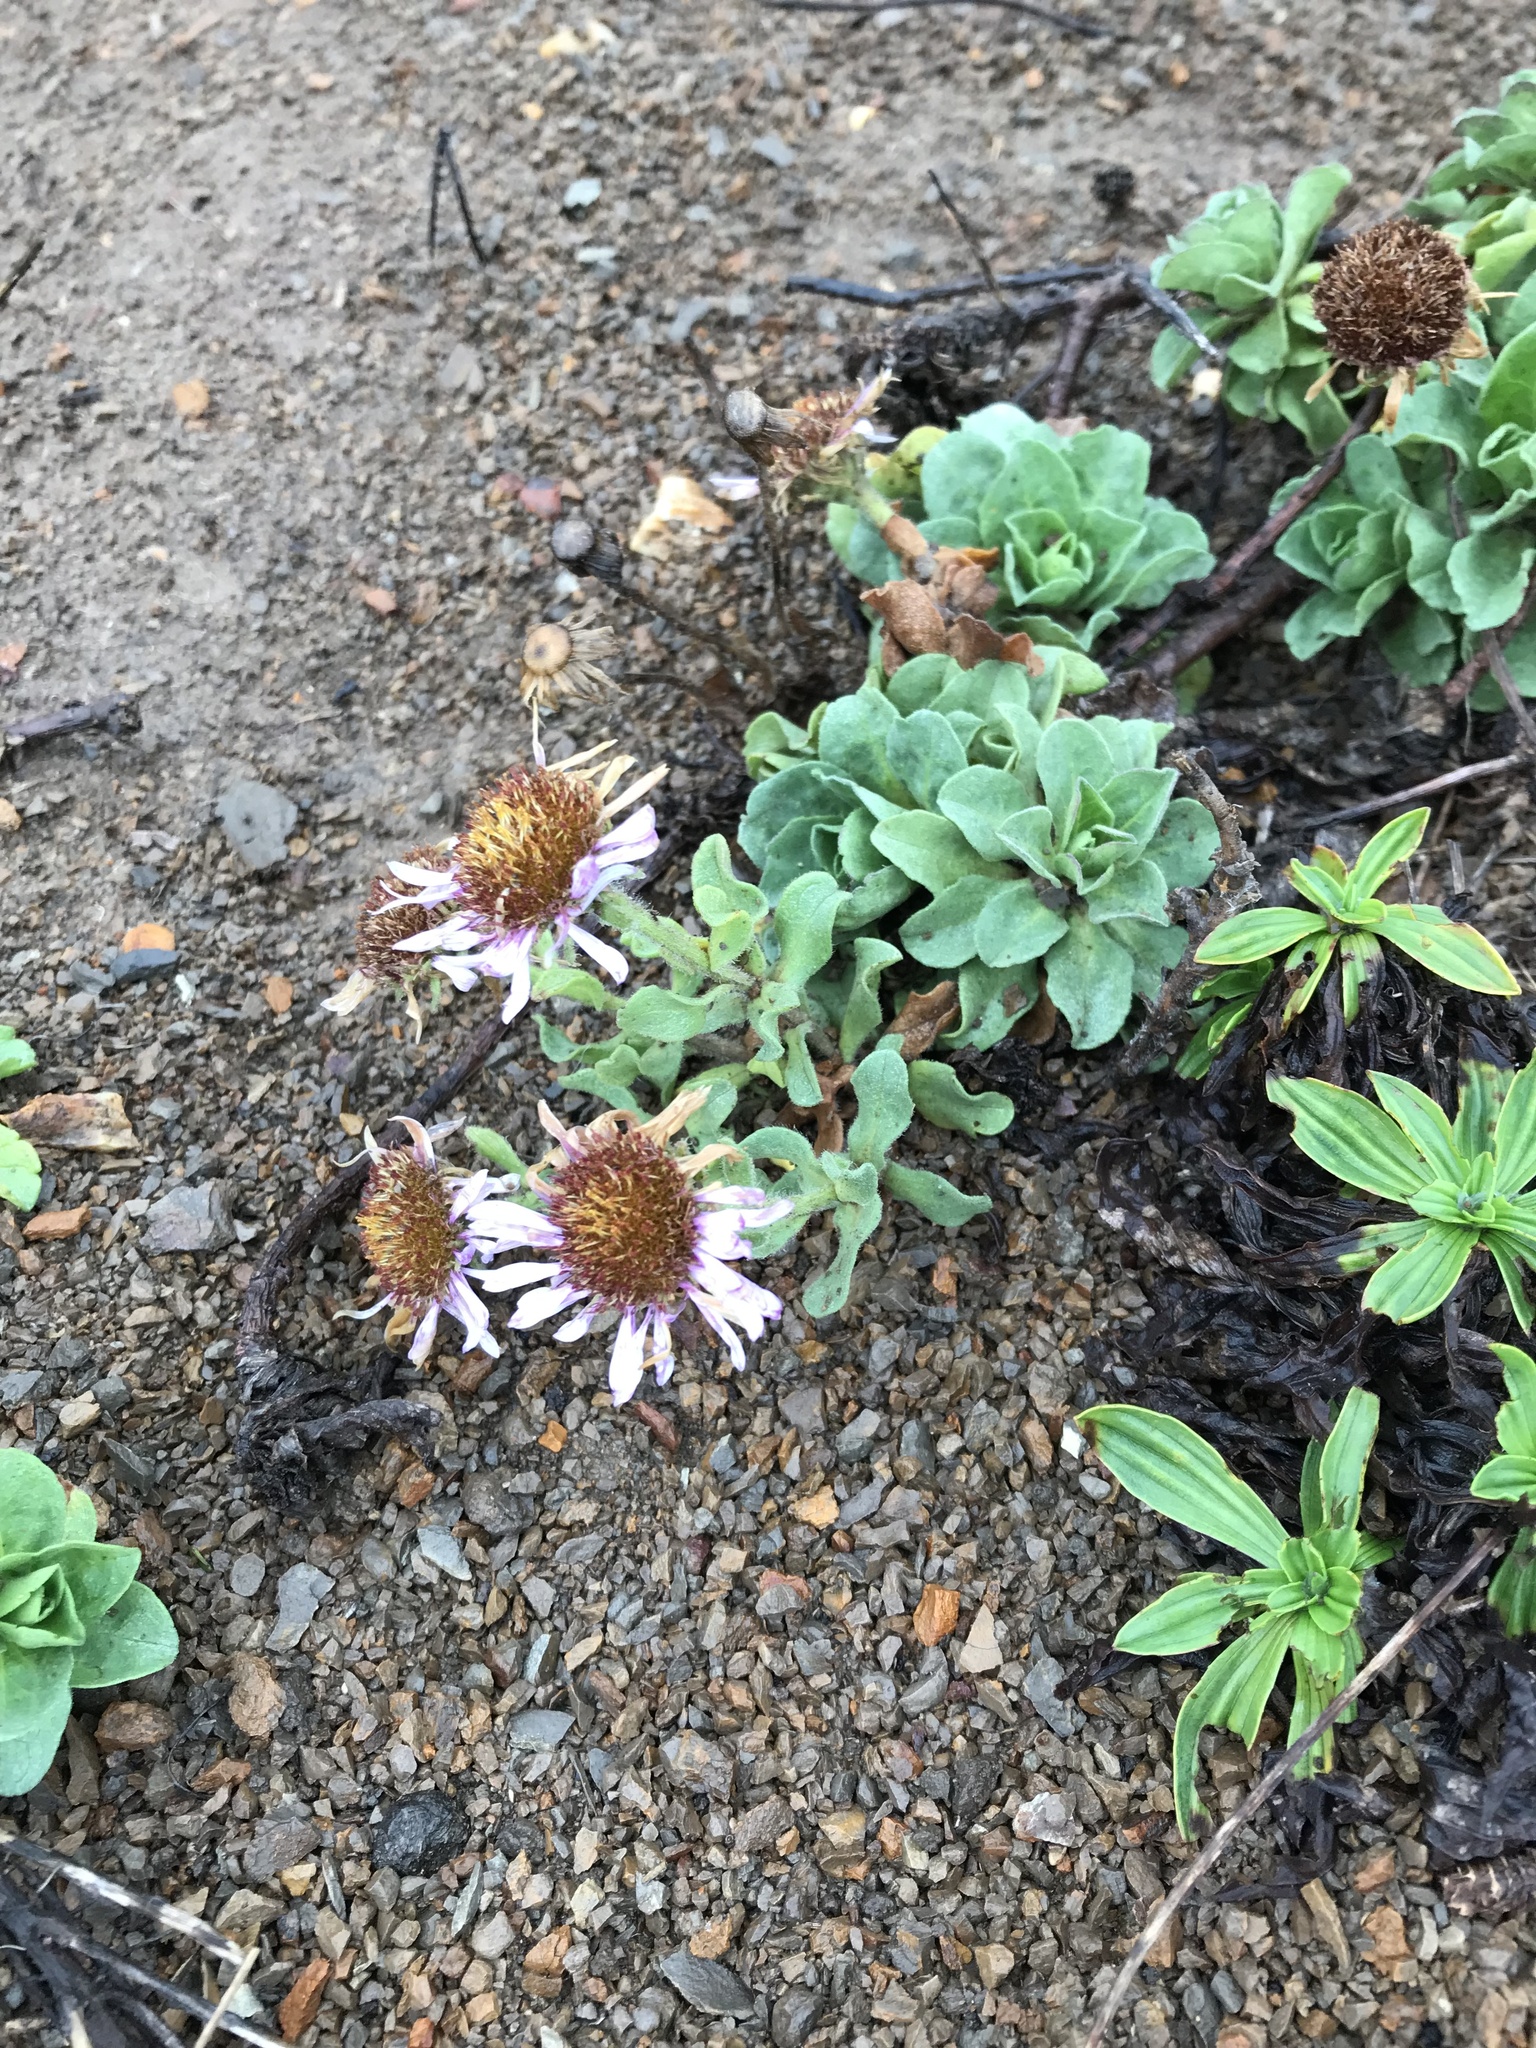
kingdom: Plantae
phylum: Tracheophyta
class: Magnoliopsida
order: Asterales
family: Asteraceae
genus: Erigeron
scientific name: Erigeron glaucus
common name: Seaside daisy
